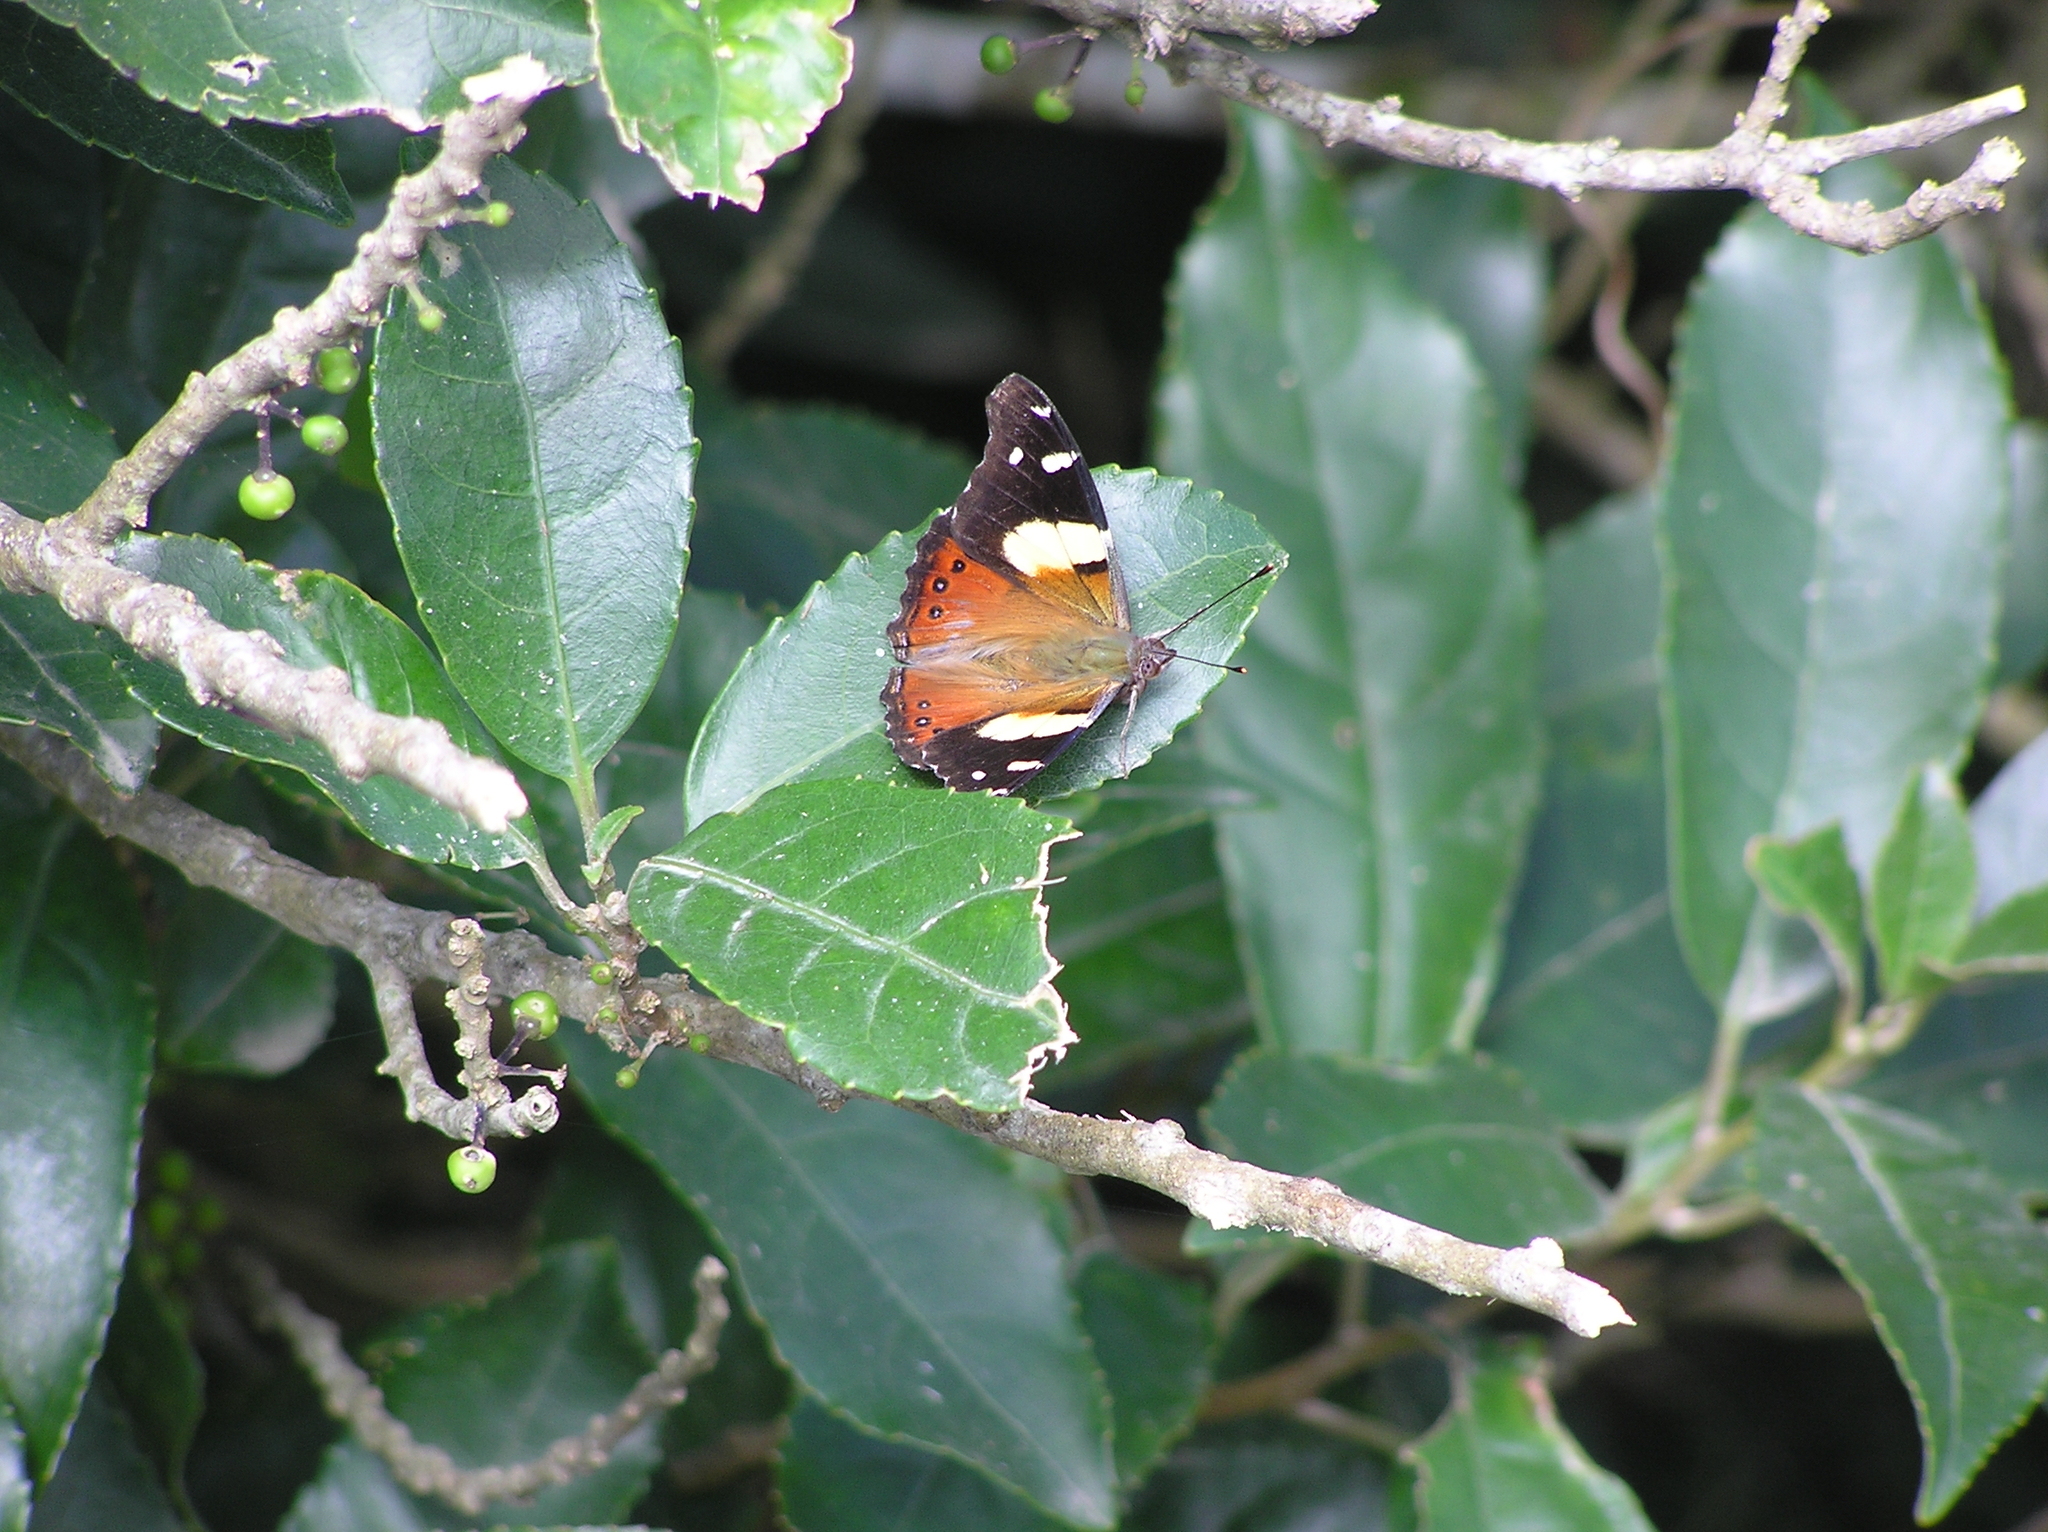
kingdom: Animalia
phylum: Arthropoda
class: Insecta
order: Lepidoptera
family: Nymphalidae
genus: Vanessa
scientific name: Vanessa itea
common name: Yellow admiral
